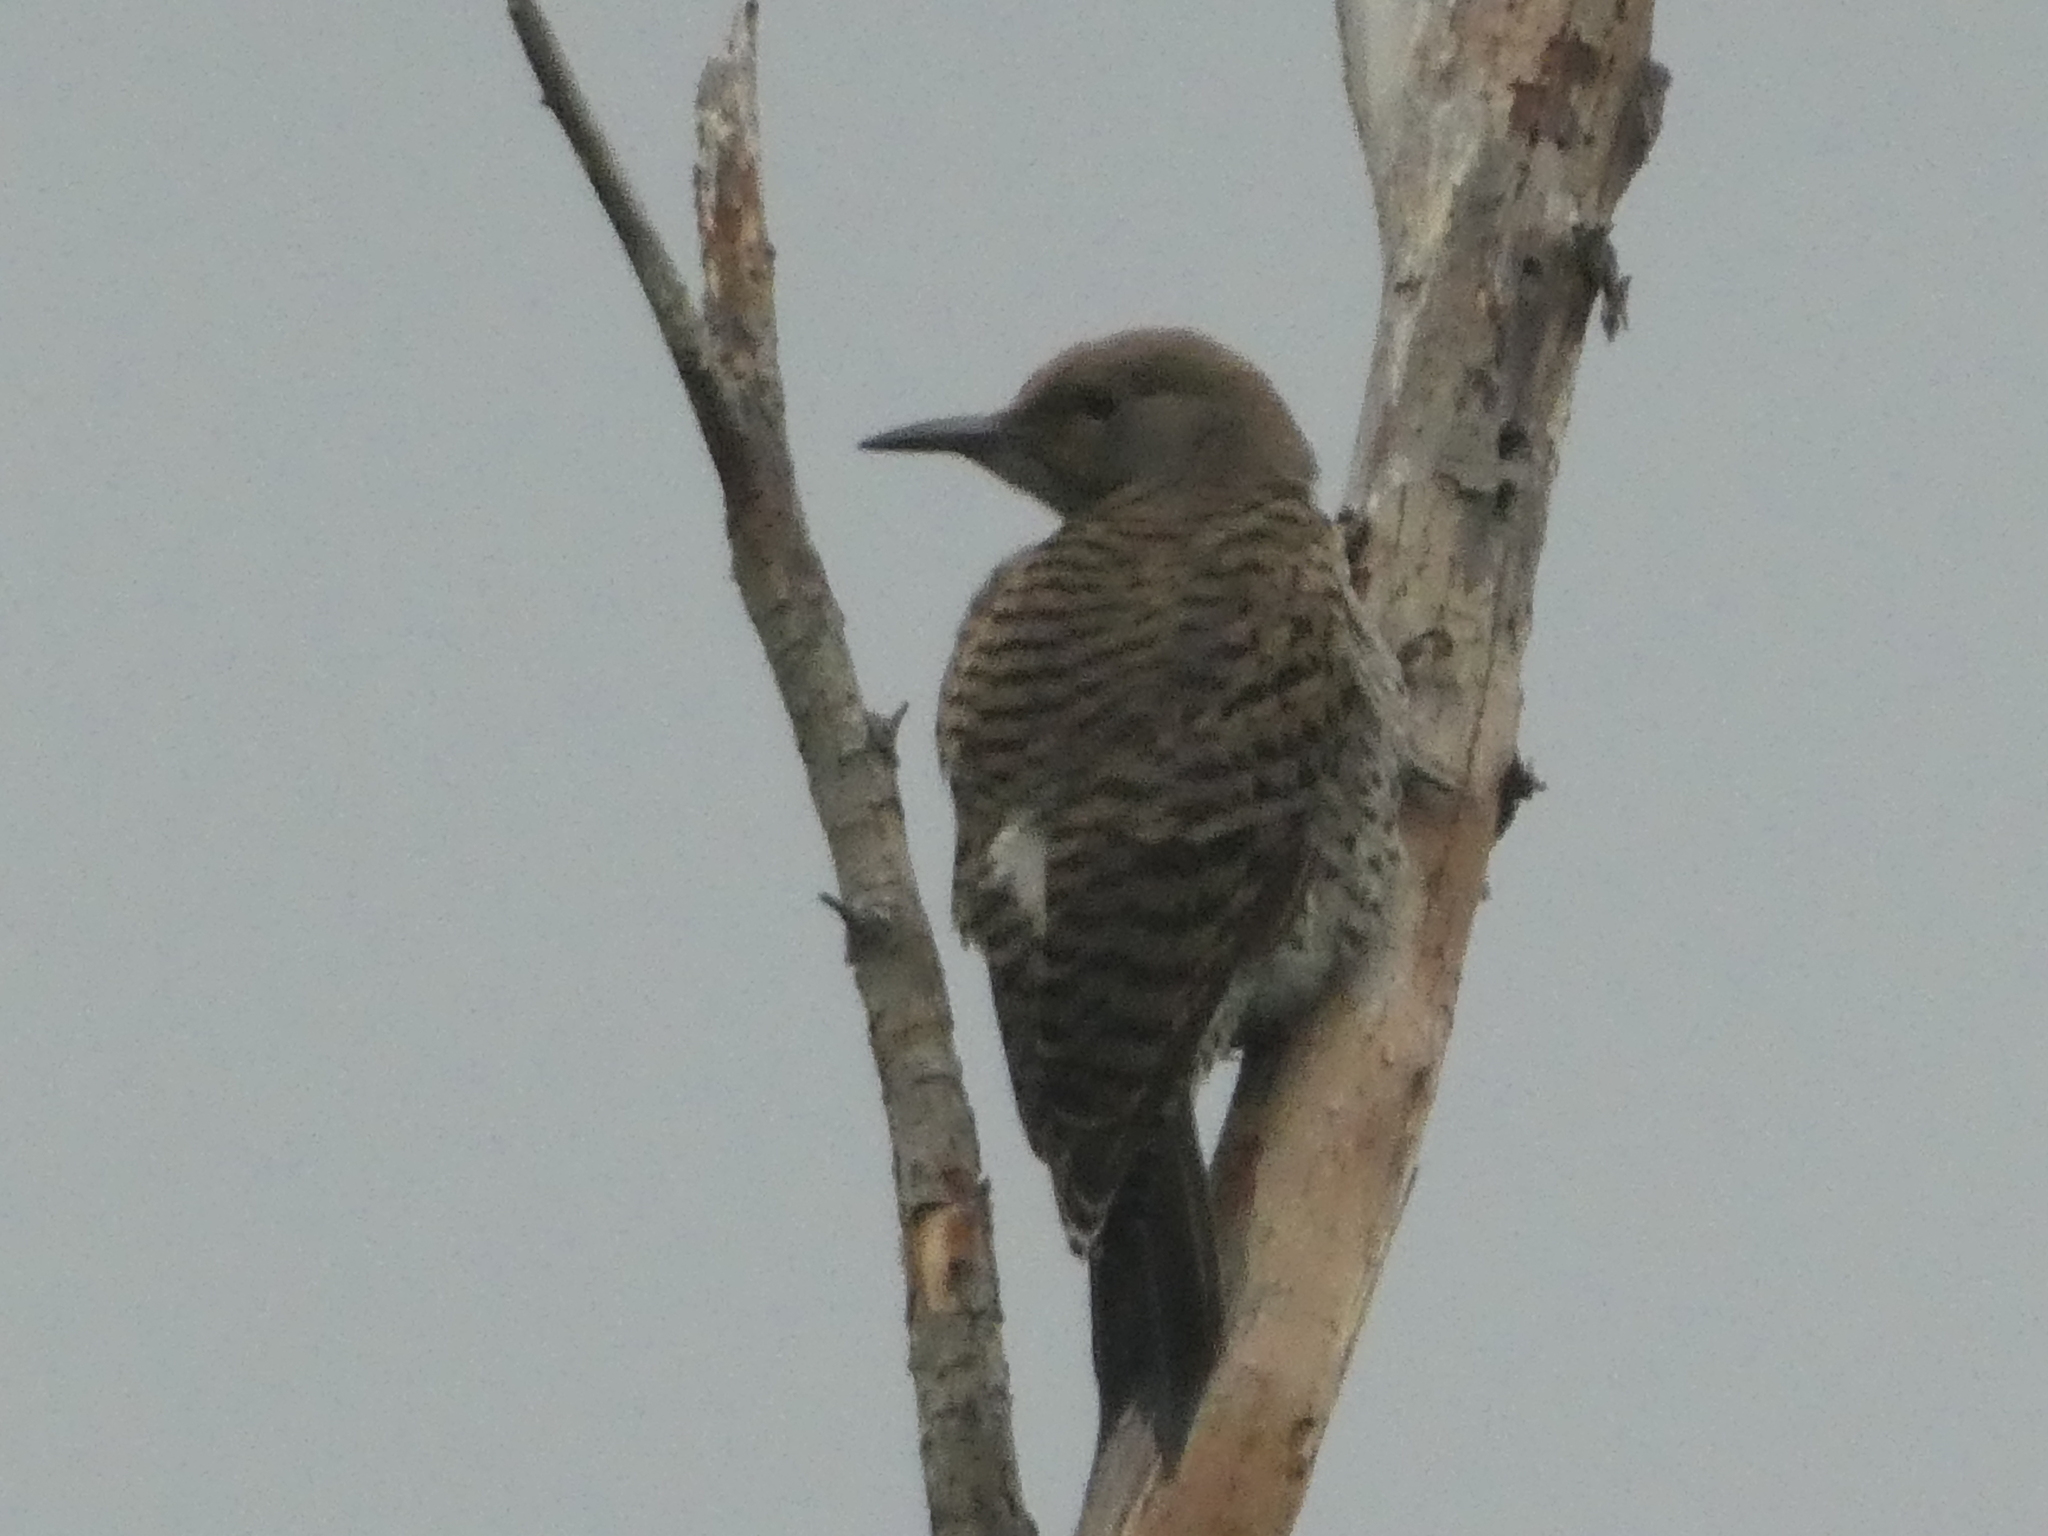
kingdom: Animalia
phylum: Chordata
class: Aves
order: Piciformes
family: Picidae
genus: Colaptes
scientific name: Colaptes auratus
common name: Northern flicker
